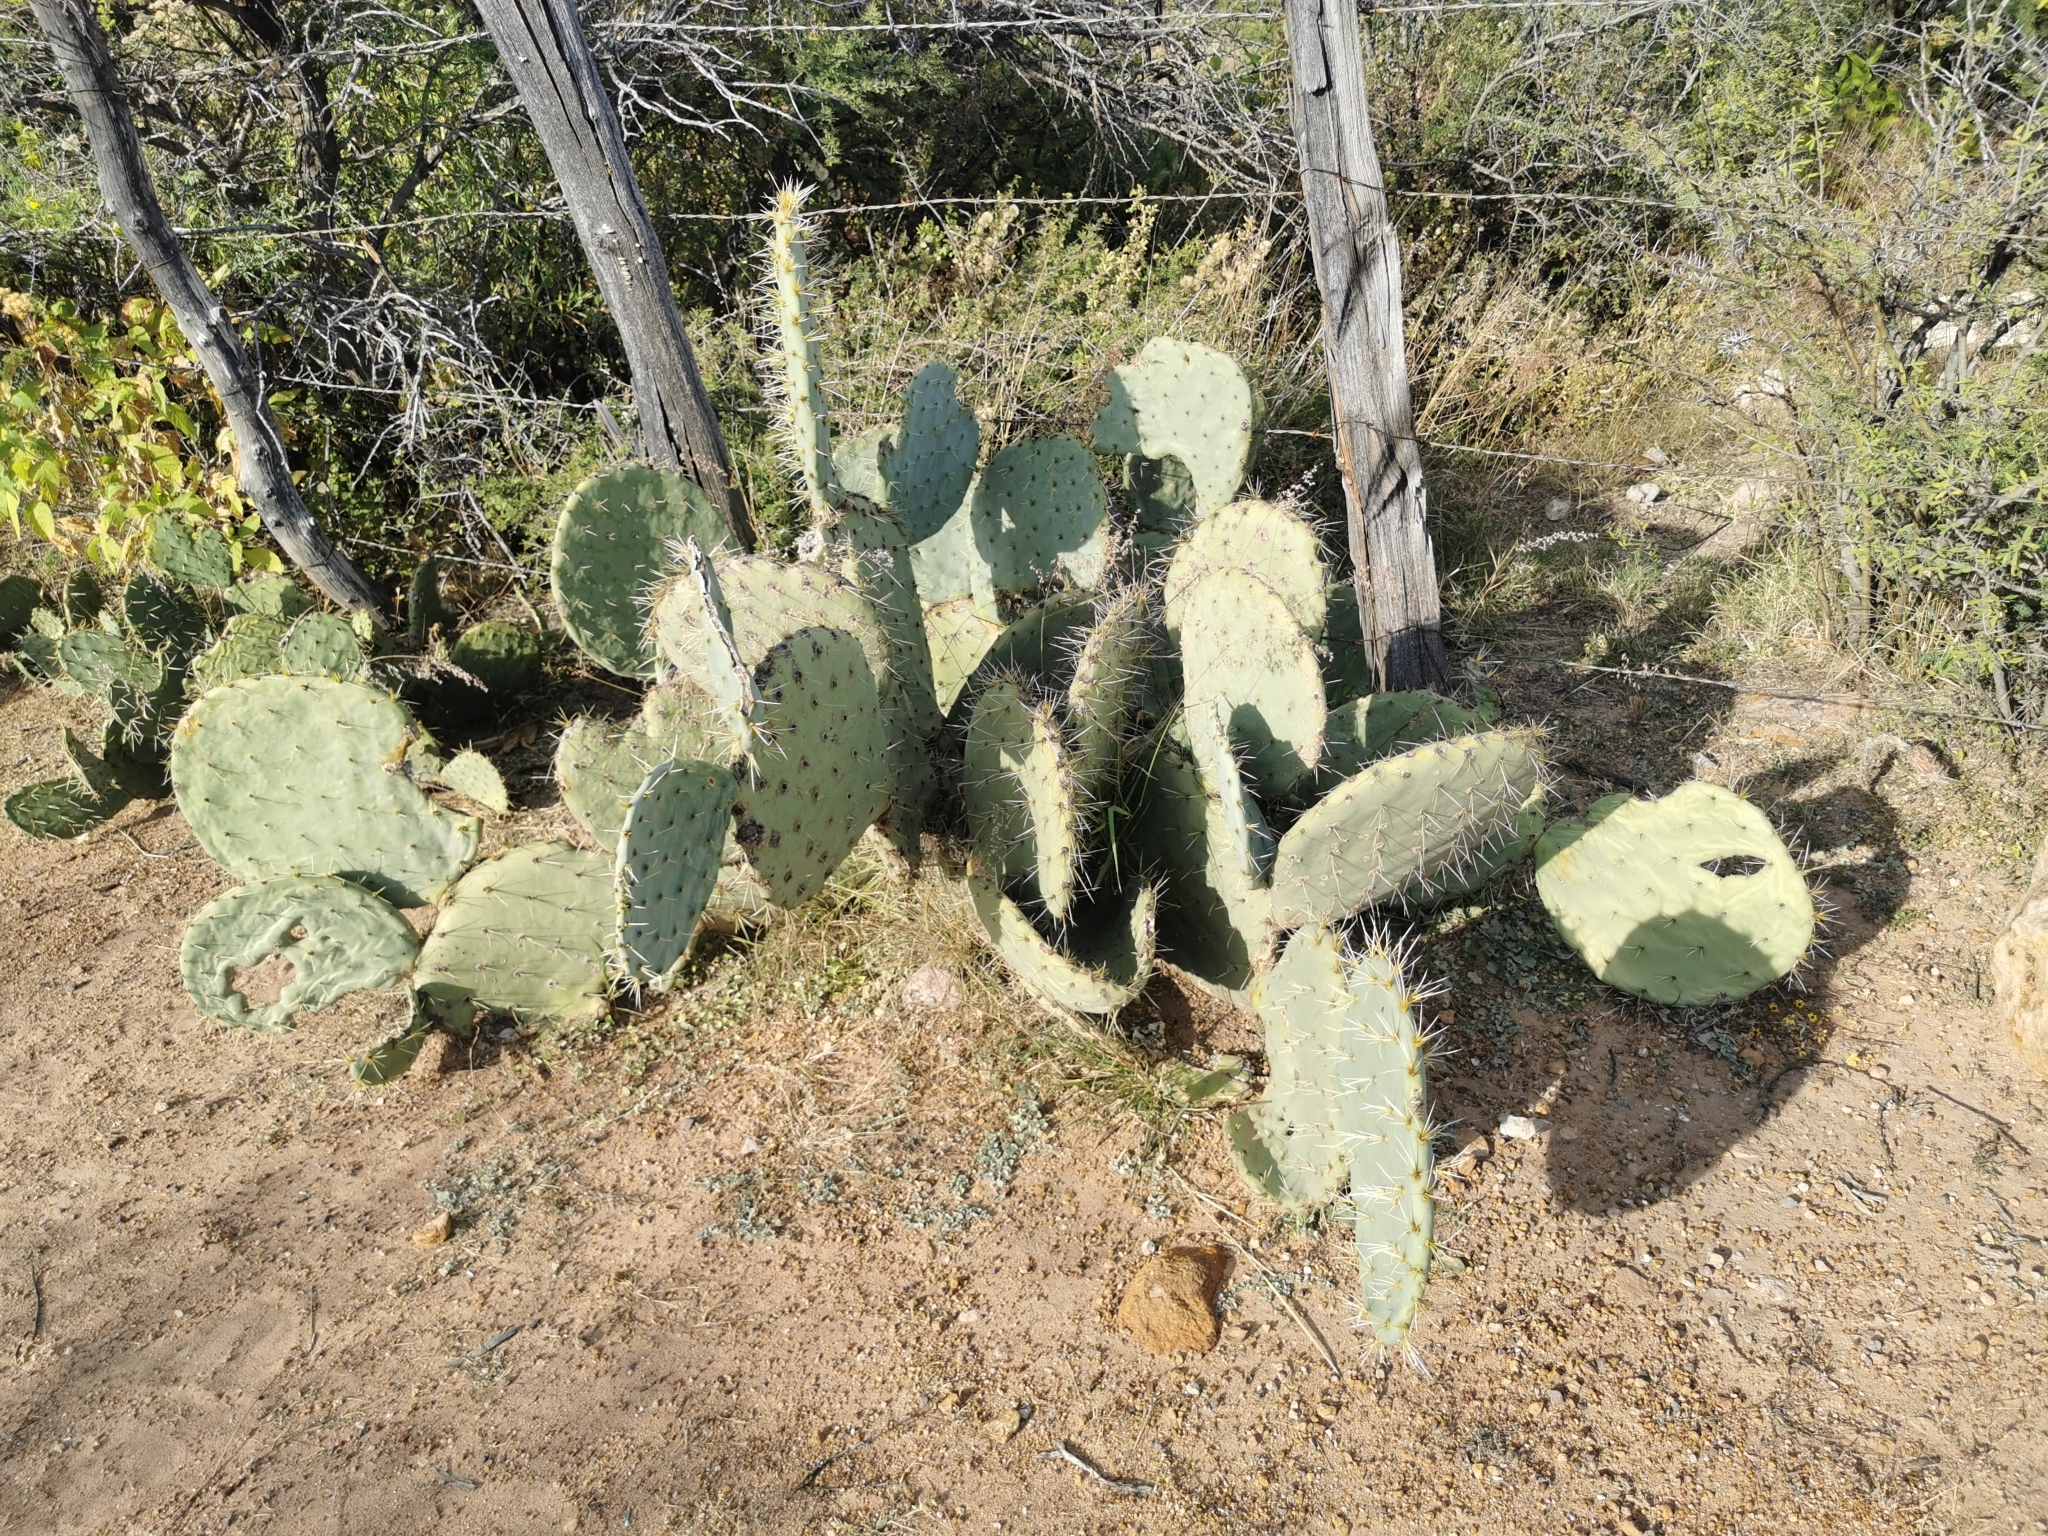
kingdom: Plantae
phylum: Tracheophyta
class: Magnoliopsida
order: Caryophyllales
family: Cactaceae
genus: Opuntia
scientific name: Opuntia robusta
